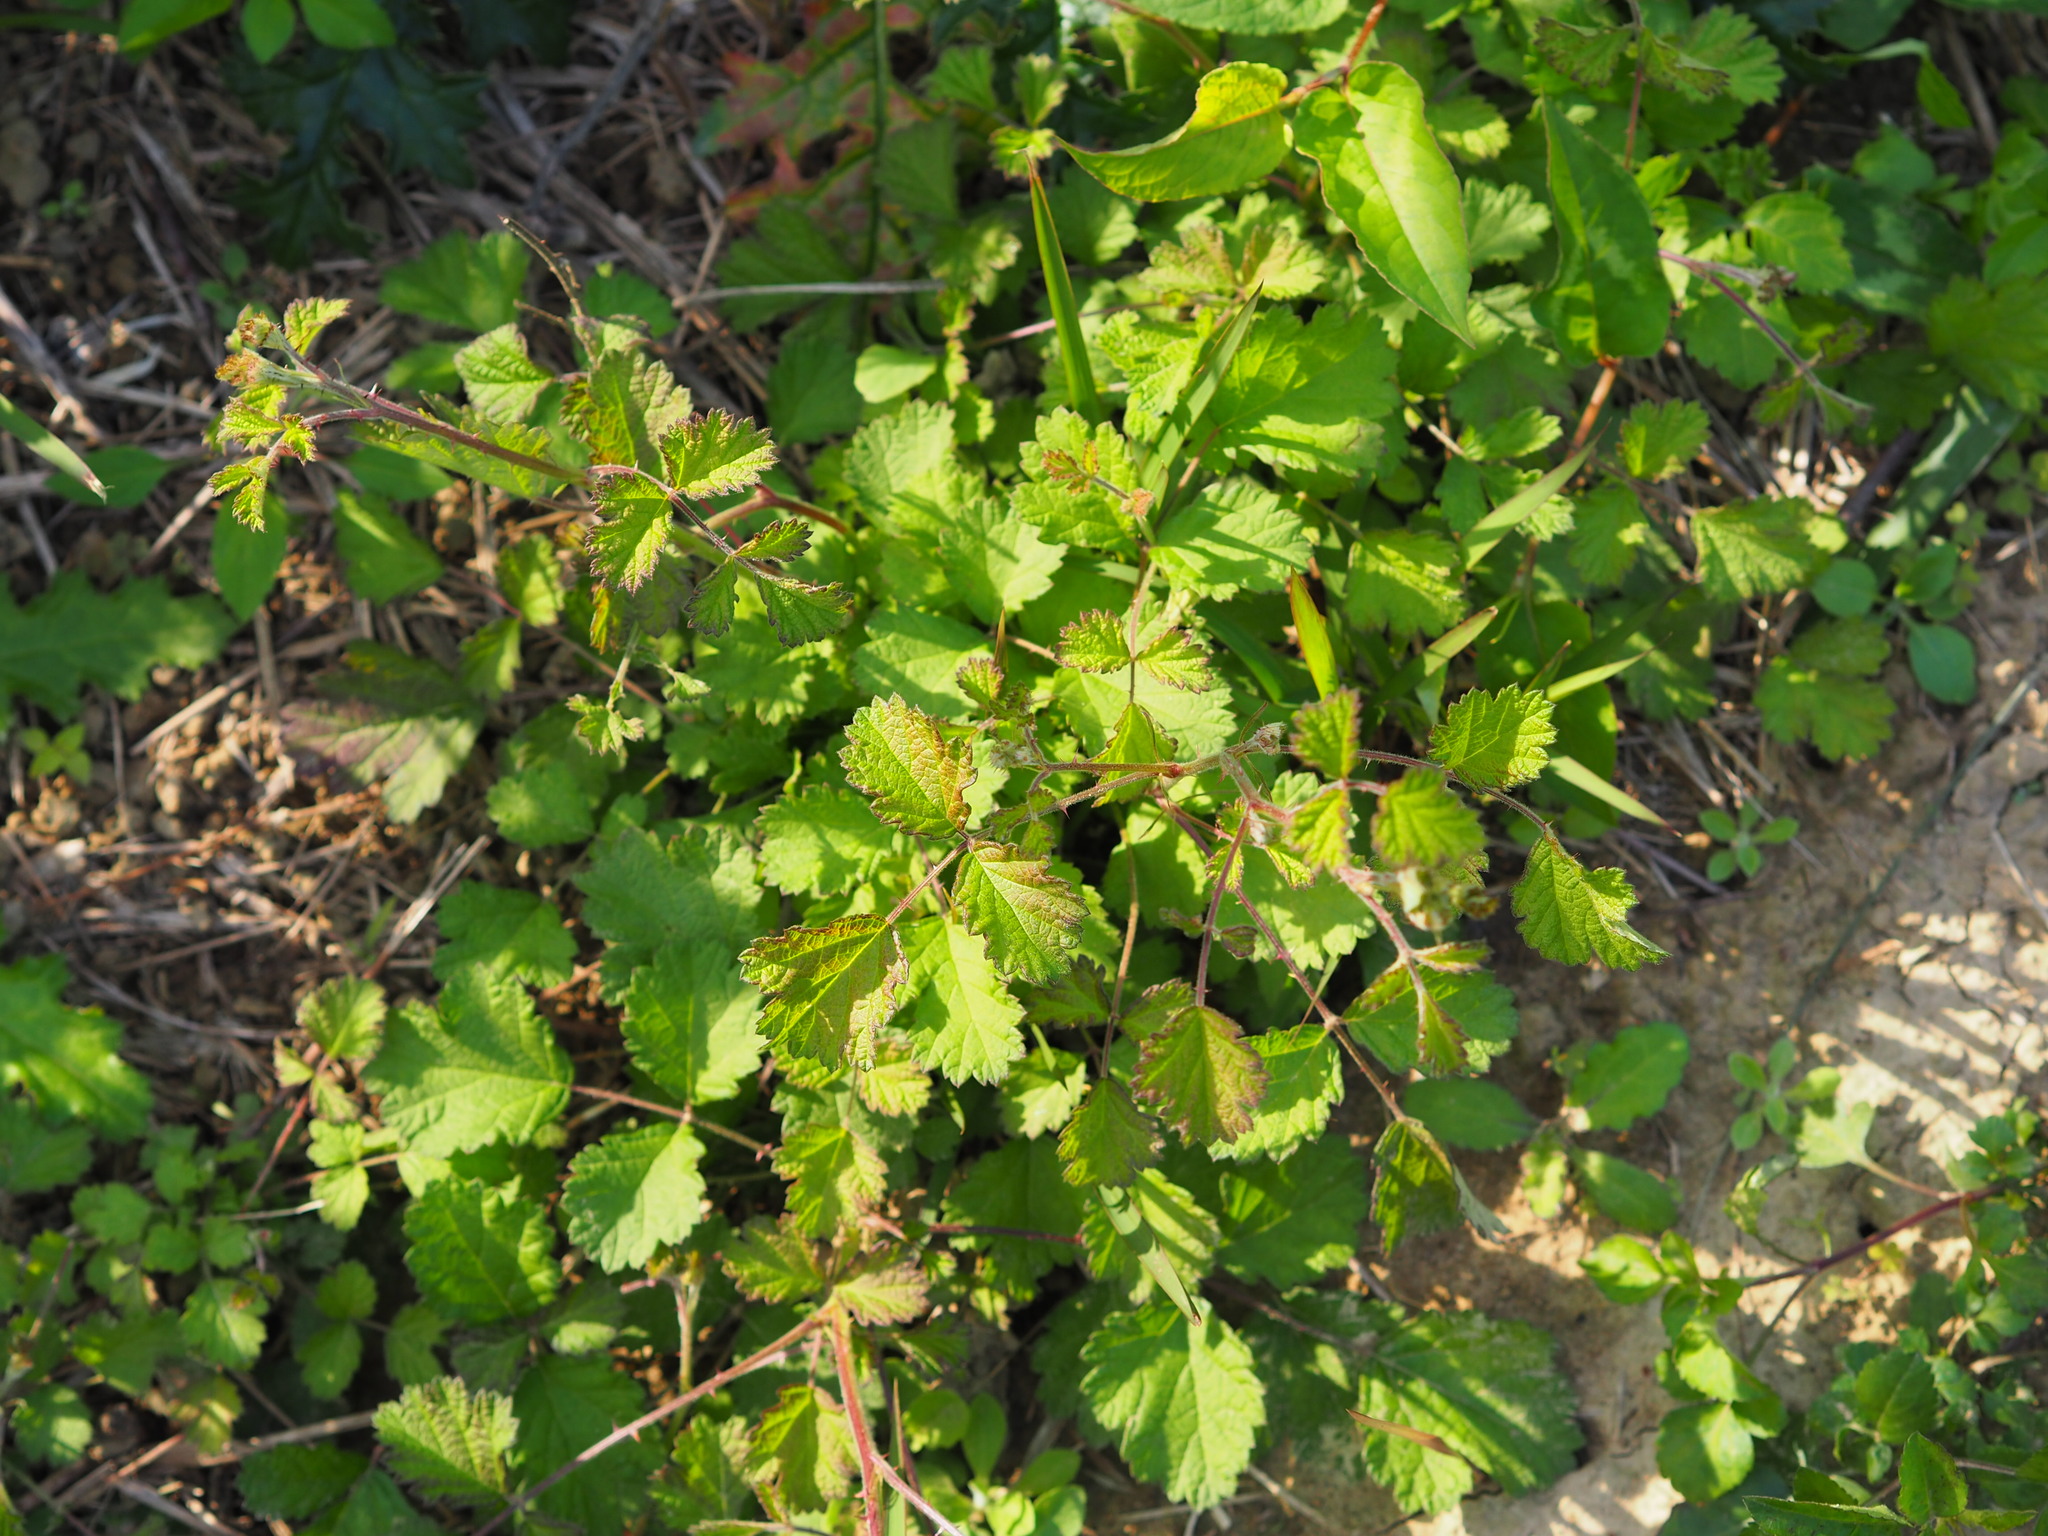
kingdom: Plantae
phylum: Tracheophyta
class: Magnoliopsida
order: Rosales
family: Rosaceae
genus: Rubus
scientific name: Rubus parvifolius
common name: Threeleaf blackberry
